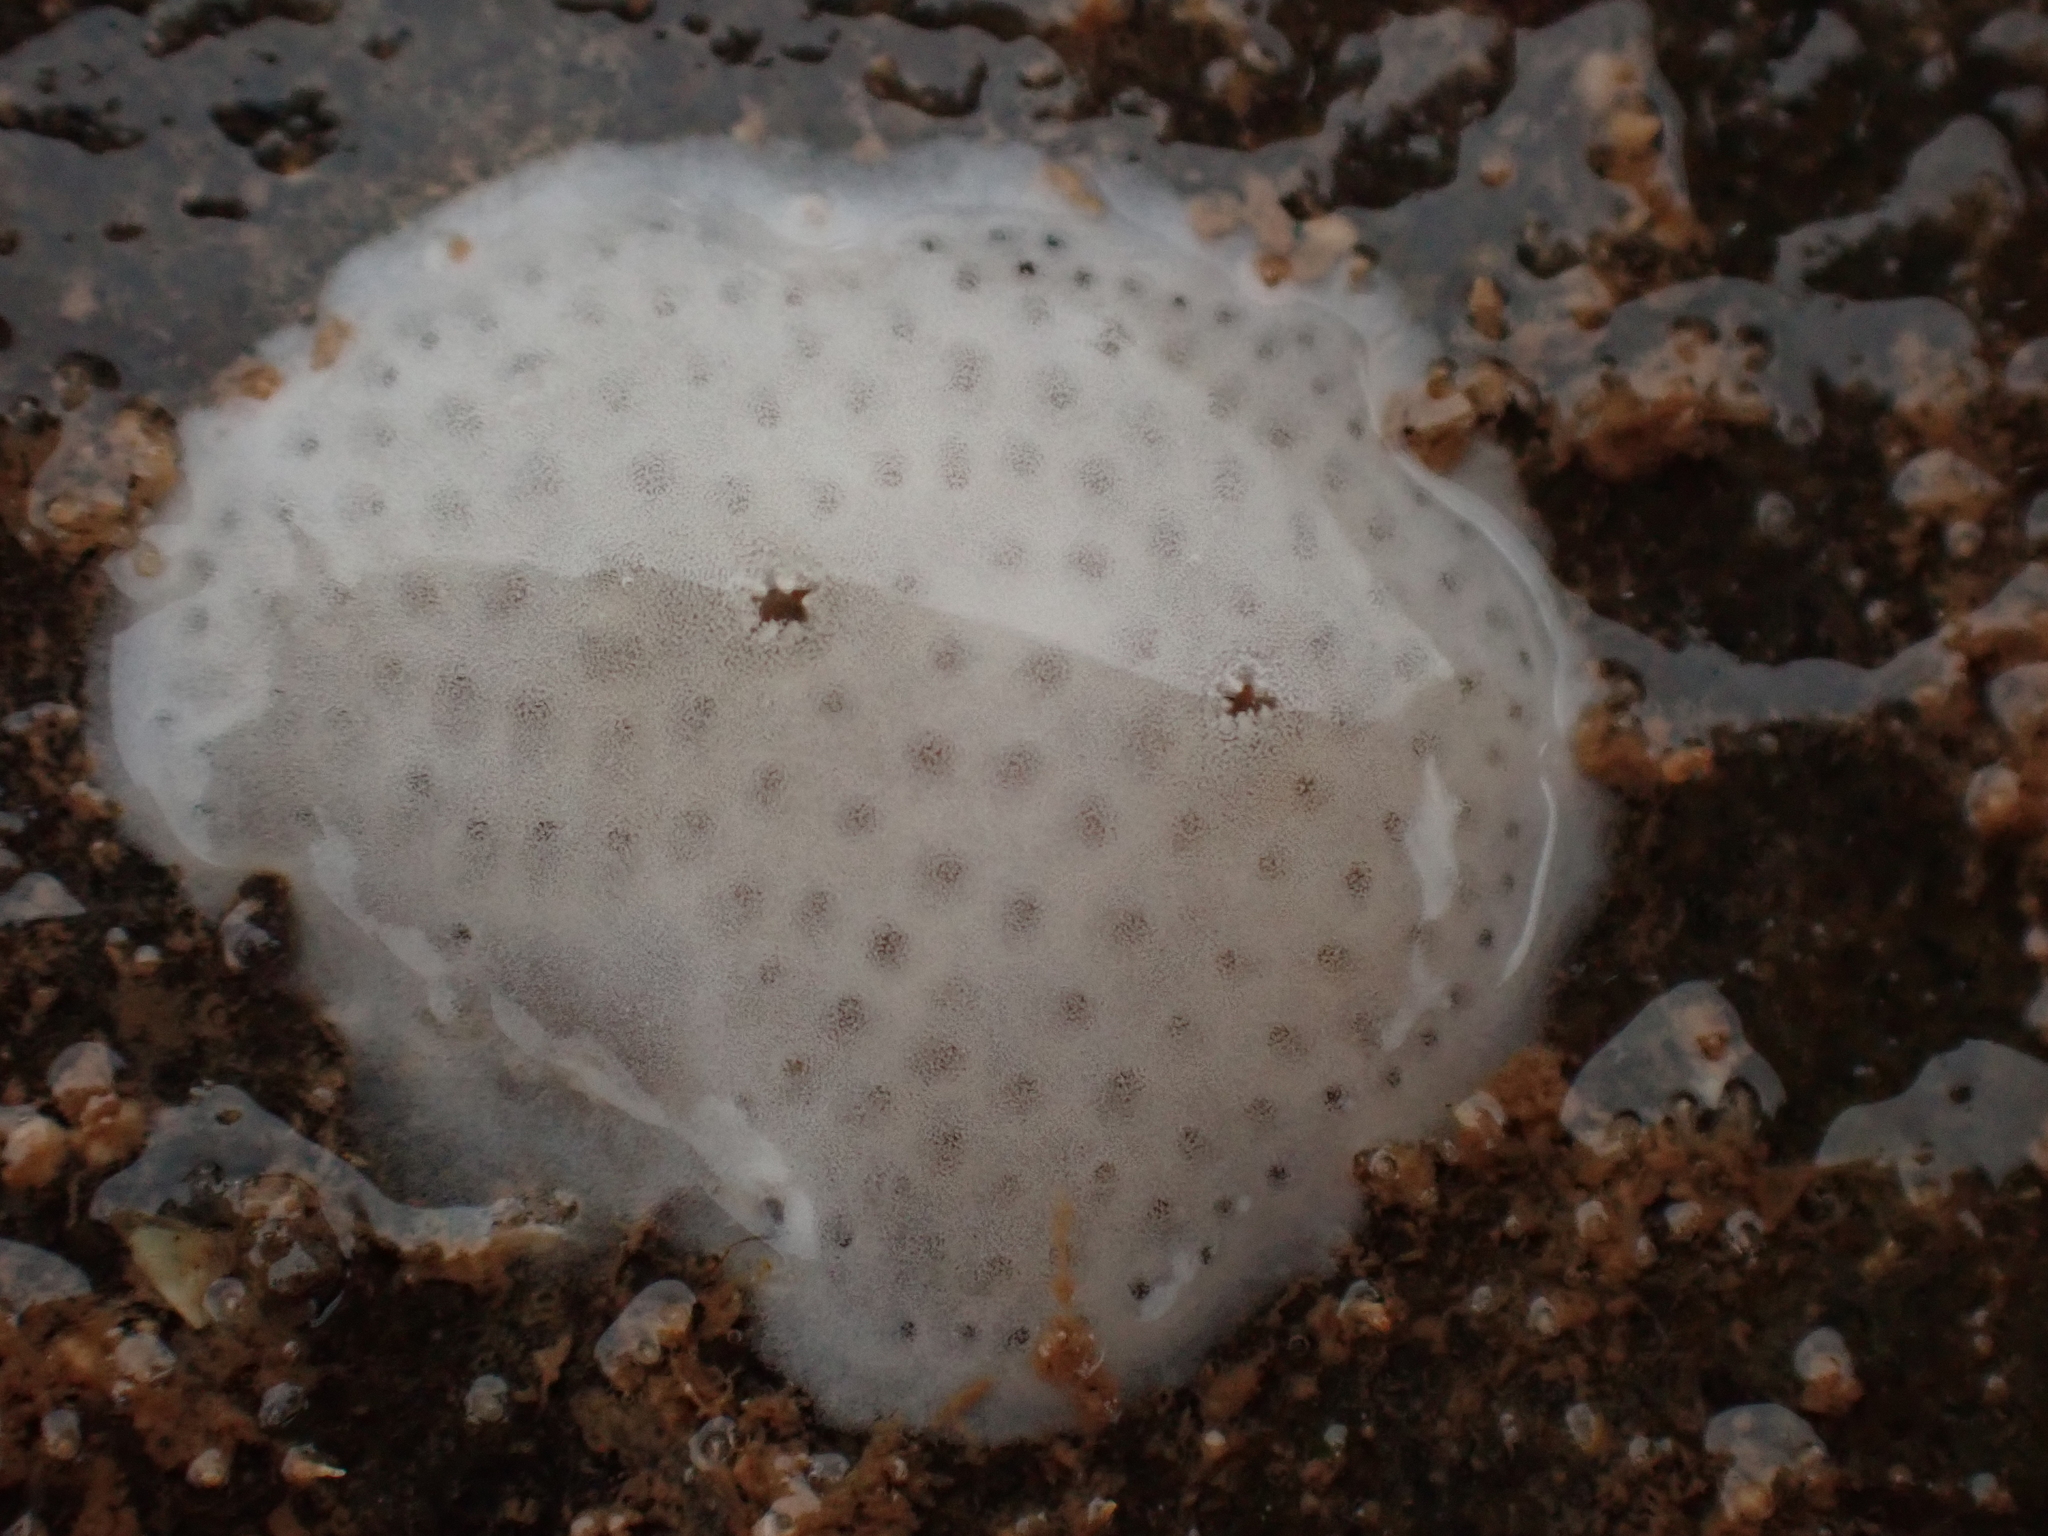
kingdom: Animalia
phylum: Chordata
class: Ascidiacea
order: Aplousobranchia
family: Didemnidae
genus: Didemnum
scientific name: Didemnum albidum
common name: Northern white crust
